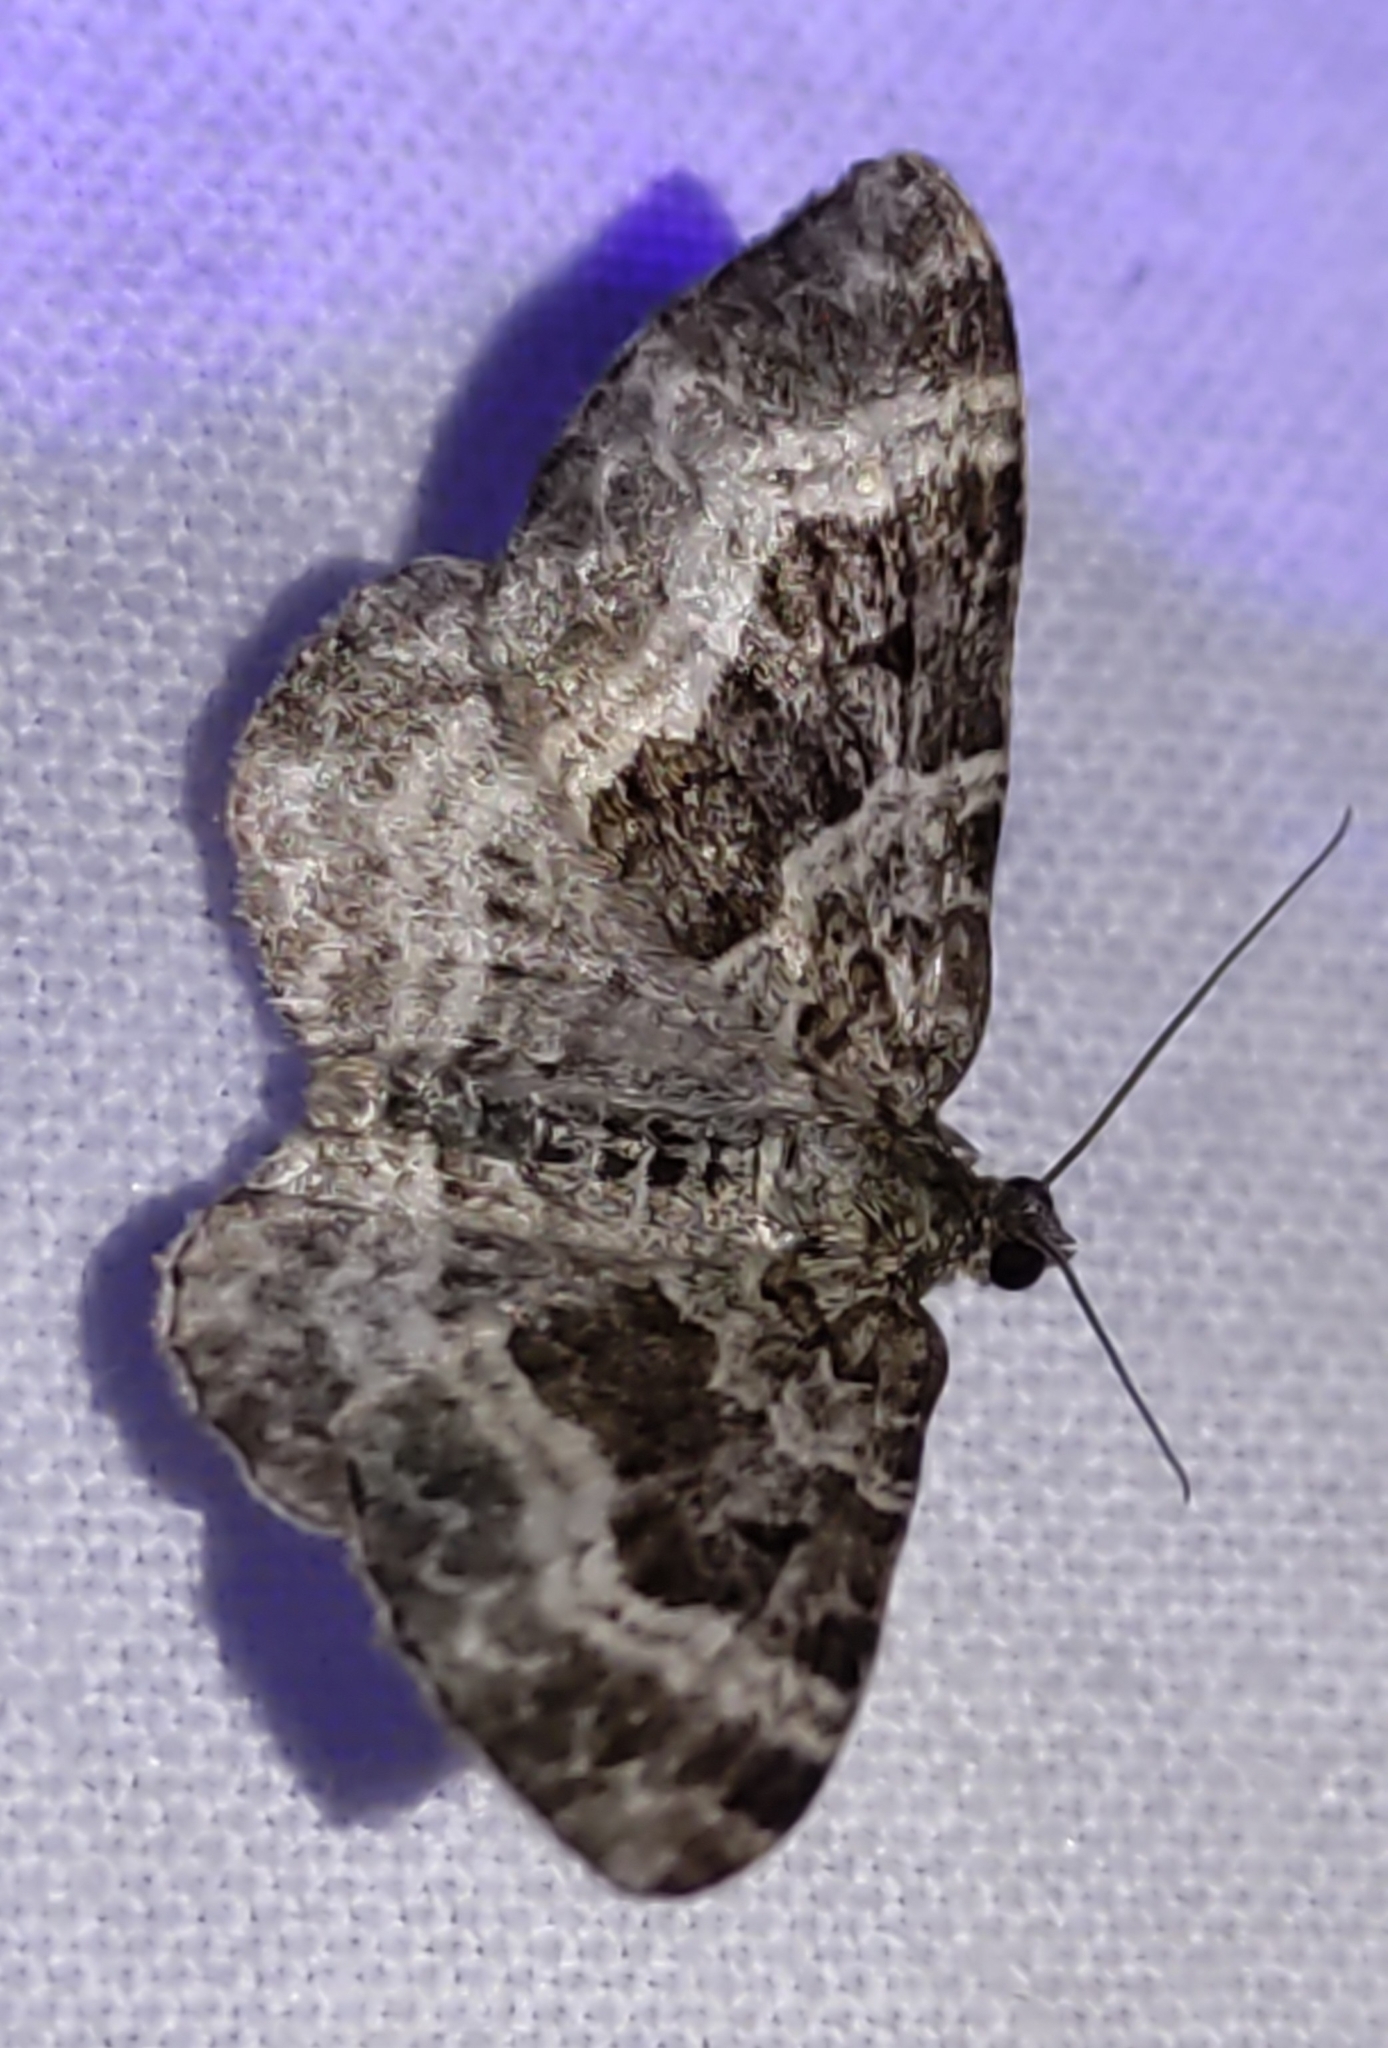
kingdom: Animalia
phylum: Arthropoda
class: Insecta
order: Lepidoptera
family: Geometridae
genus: Epirrhoe
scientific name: Epirrhoe alternata
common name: Common carpet
